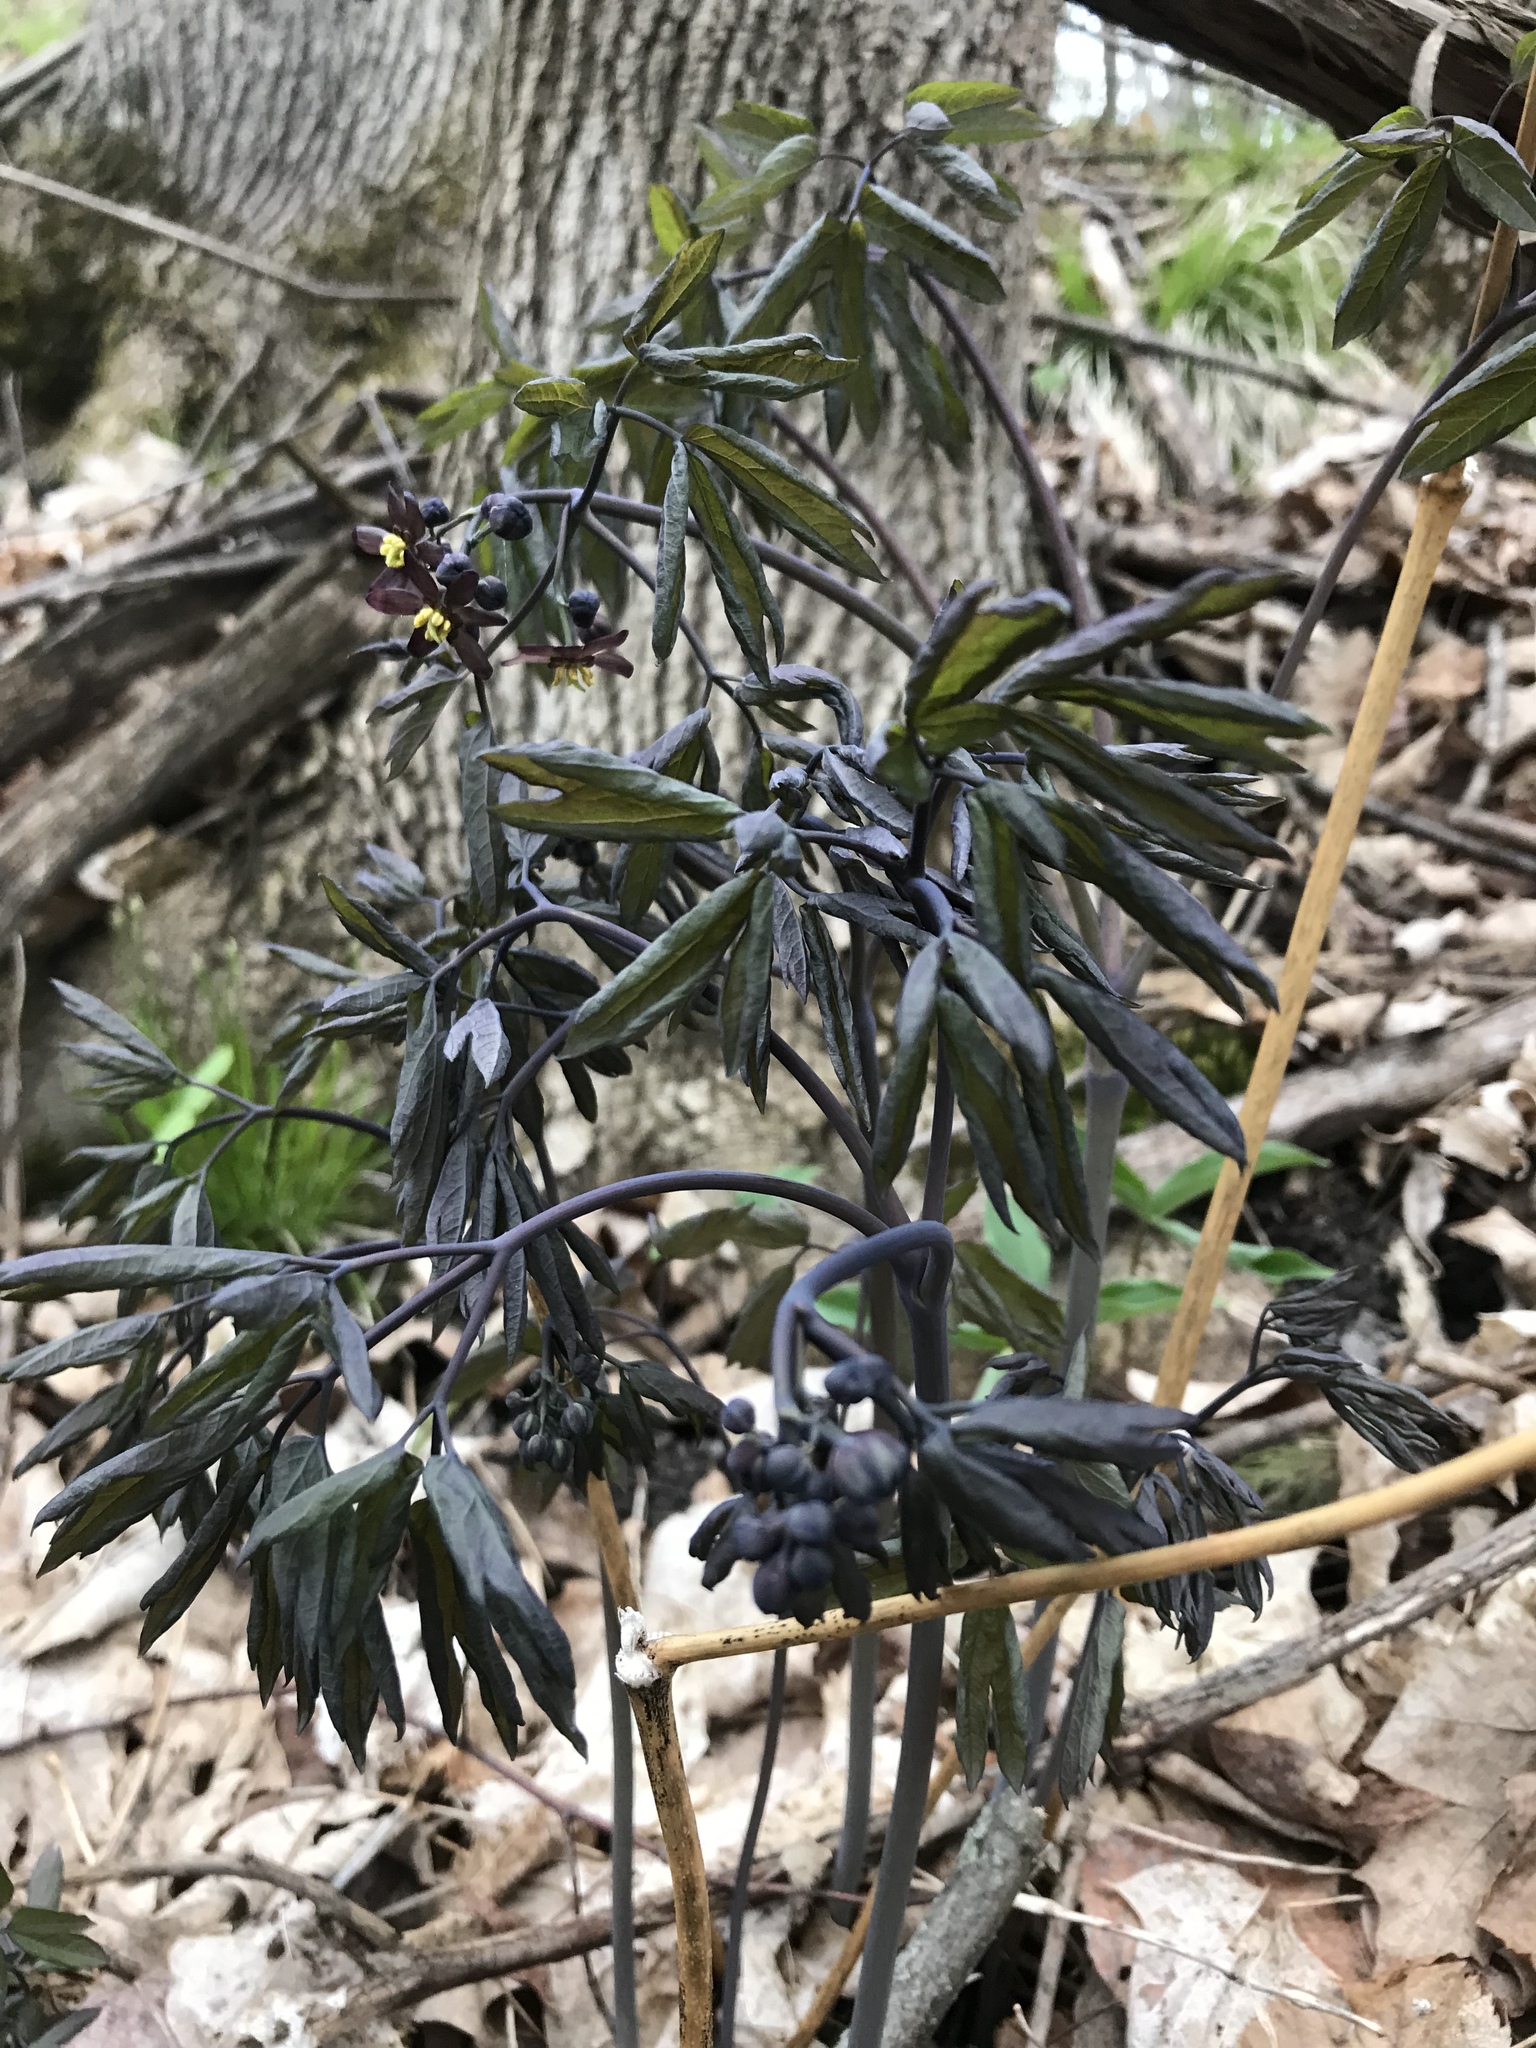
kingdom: Plantae
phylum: Tracheophyta
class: Magnoliopsida
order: Ranunculales
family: Berberidaceae
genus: Caulophyllum
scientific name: Caulophyllum giganteum
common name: Blue cohosh
